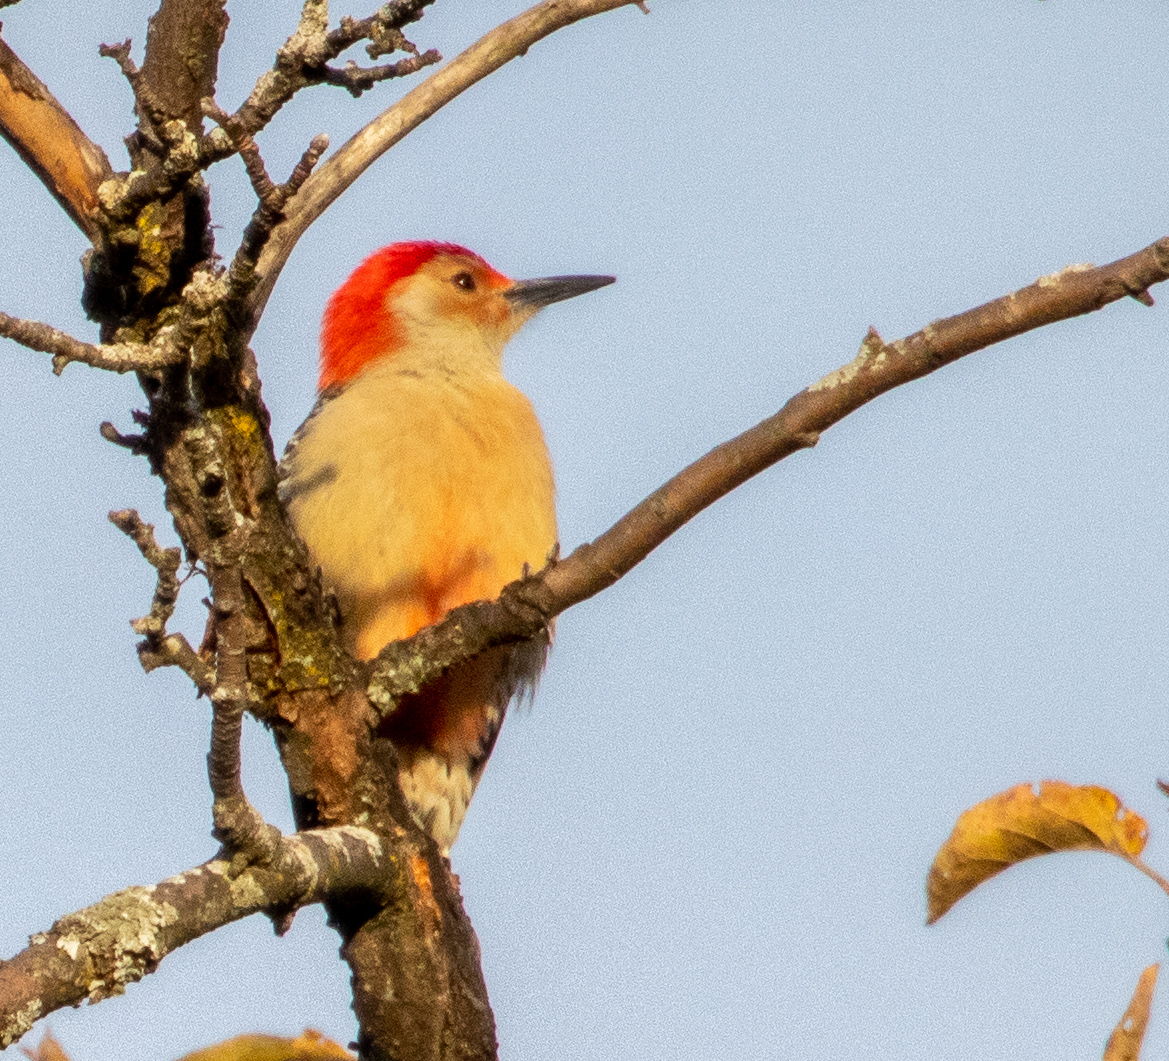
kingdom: Animalia
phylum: Chordata
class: Aves
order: Piciformes
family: Picidae
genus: Melanerpes
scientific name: Melanerpes carolinus
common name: Red-bellied woodpecker
